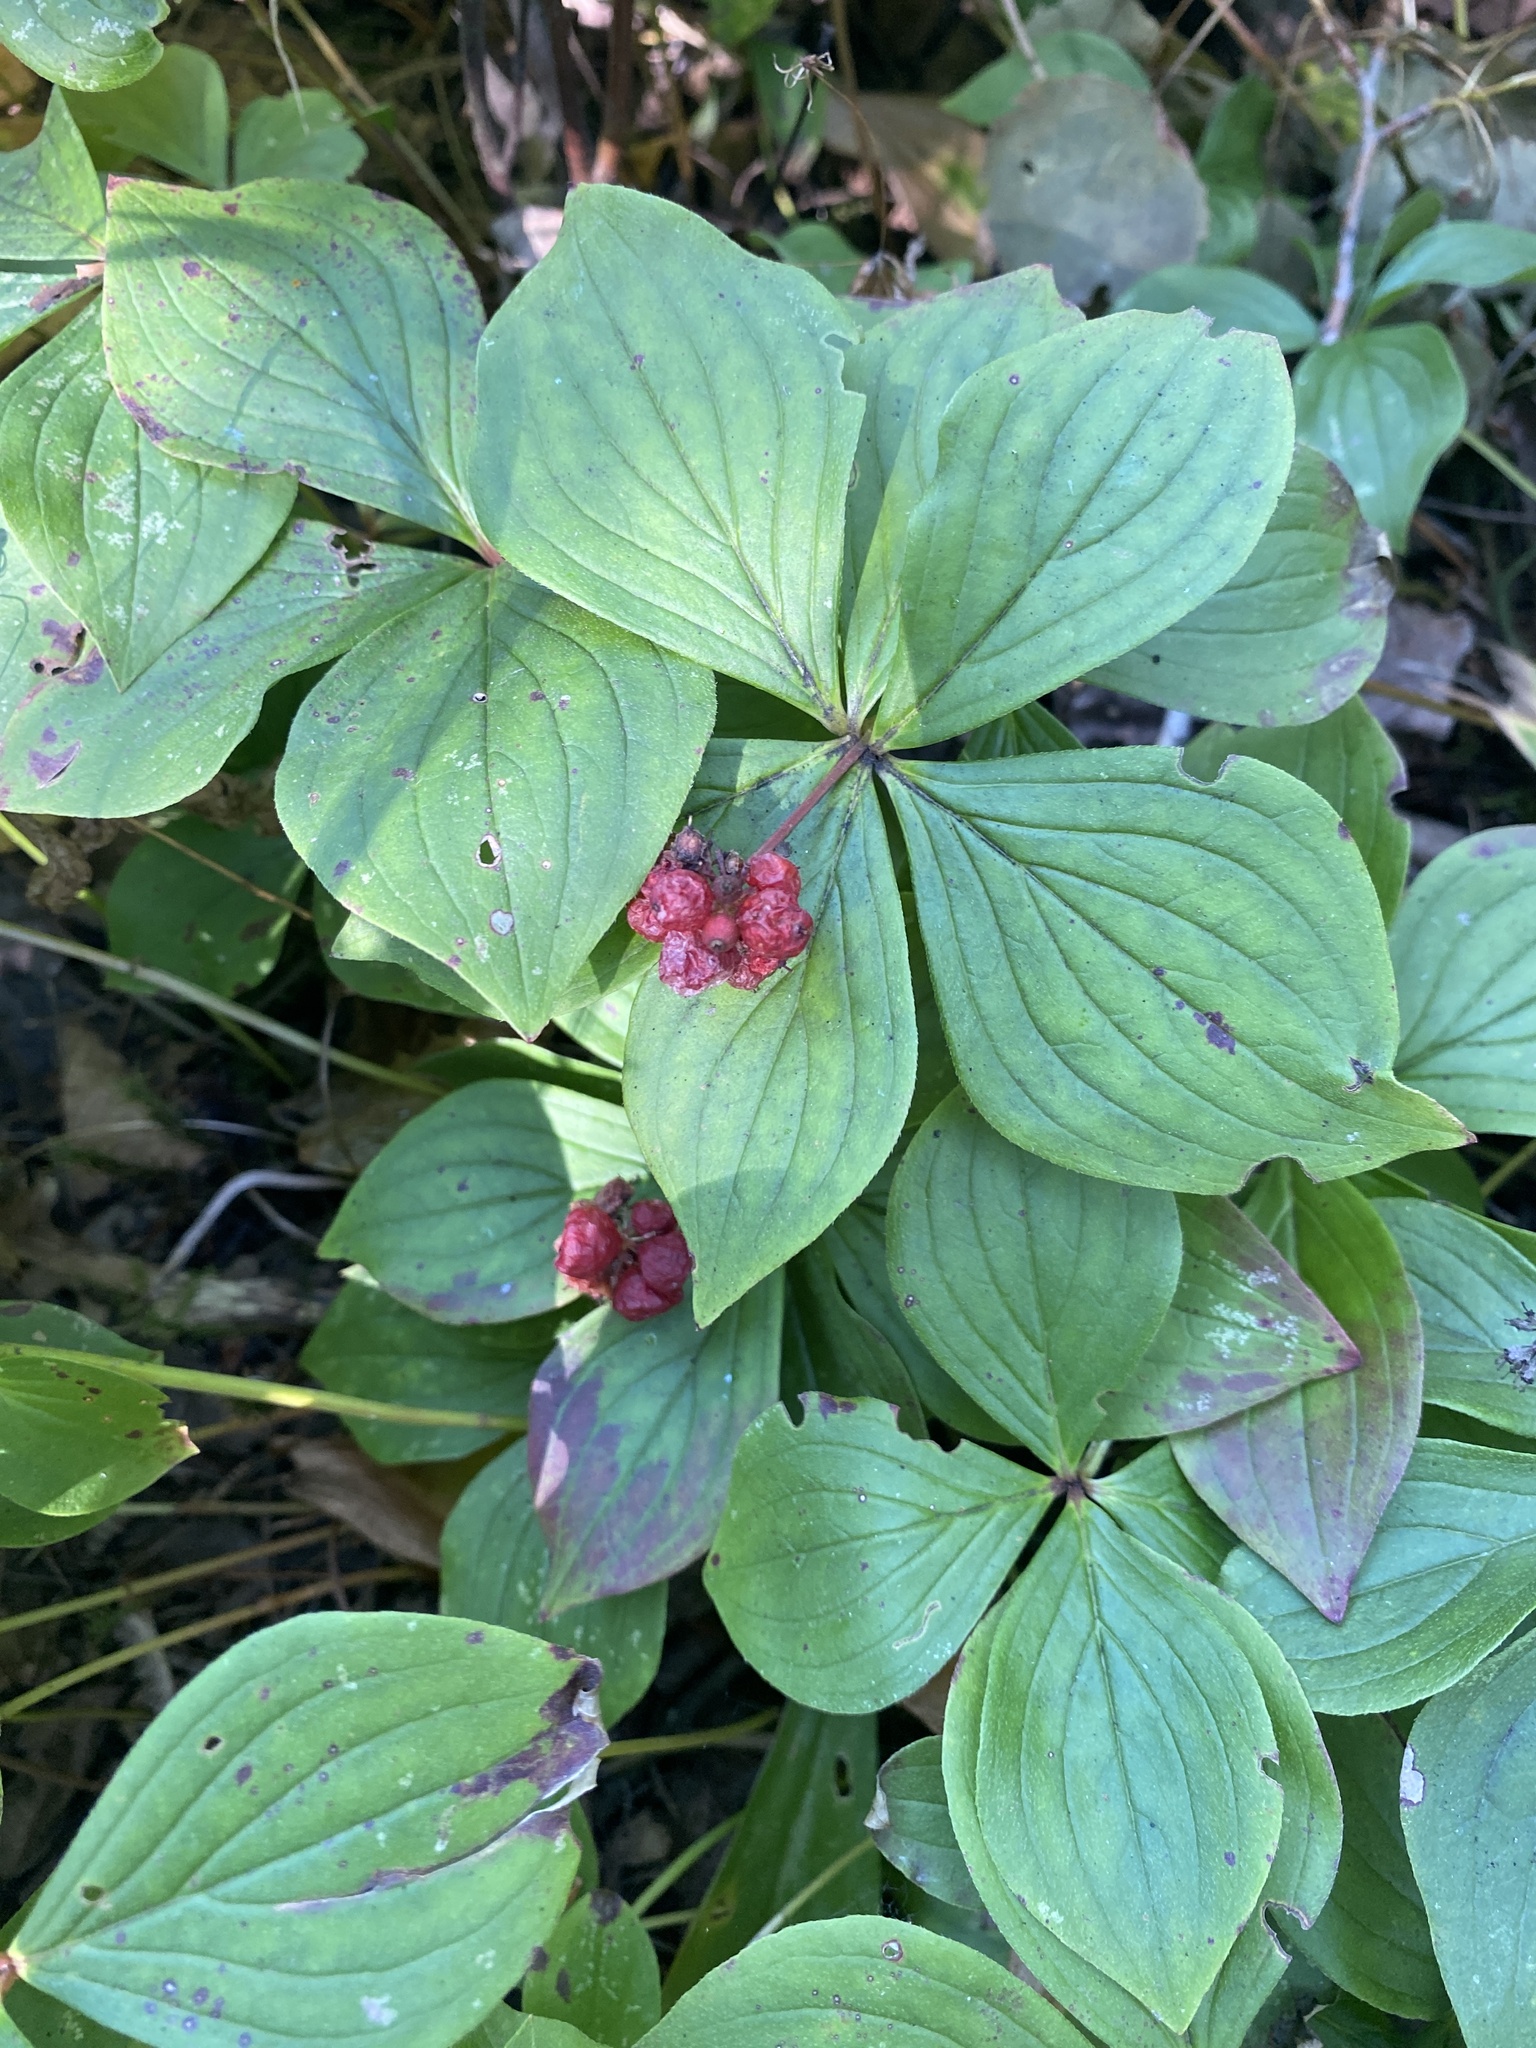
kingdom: Plantae
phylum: Tracheophyta
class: Magnoliopsida
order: Cornales
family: Cornaceae
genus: Cornus
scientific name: Cornus canadensis
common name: Creeping dogwood
